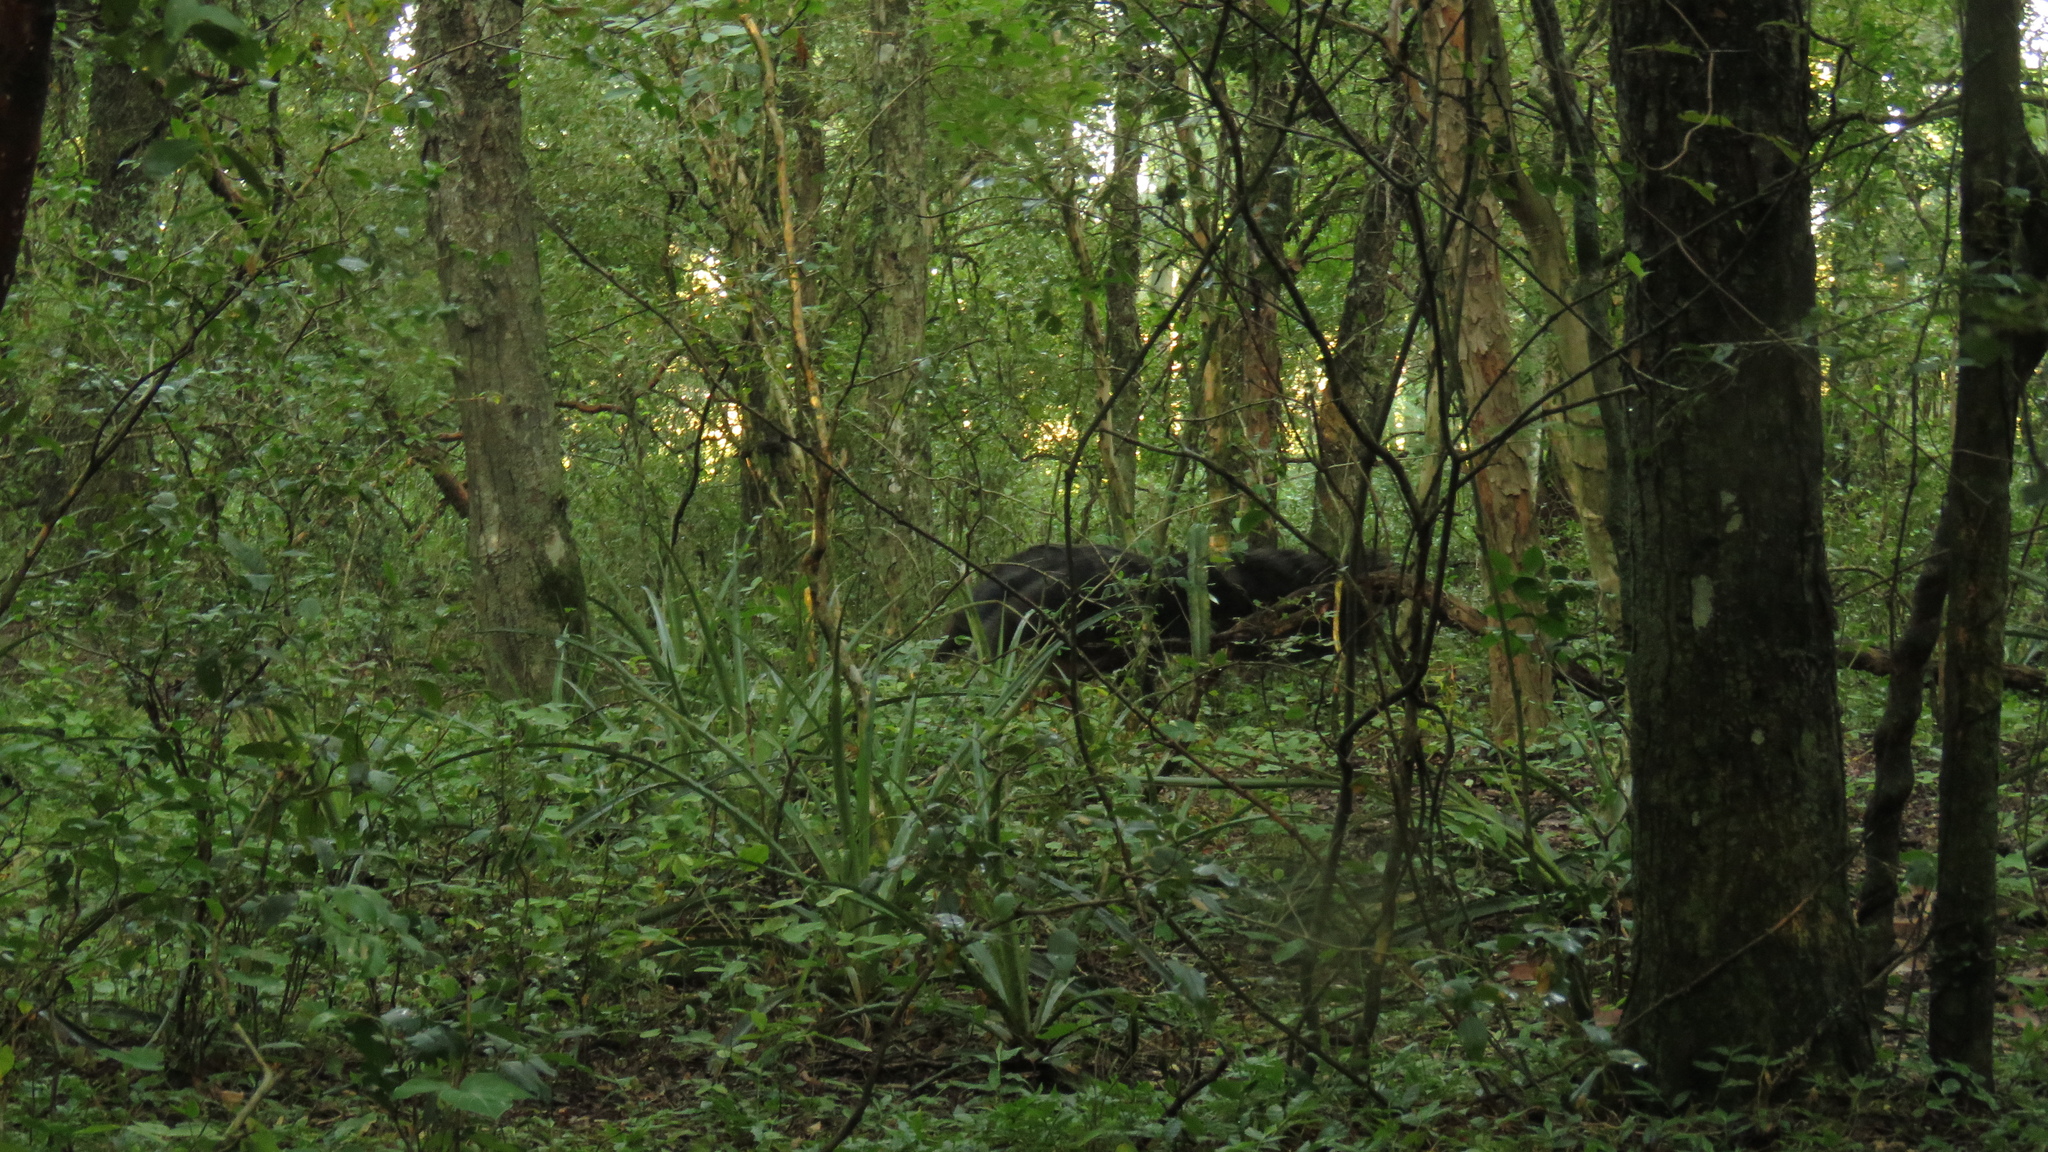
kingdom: Animalia
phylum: Chordata
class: Mammalia
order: Pilosa
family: Myrmecophagidae
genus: Myrmecophaga
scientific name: Myrmecophaga tridactyla
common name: Giant anteater
